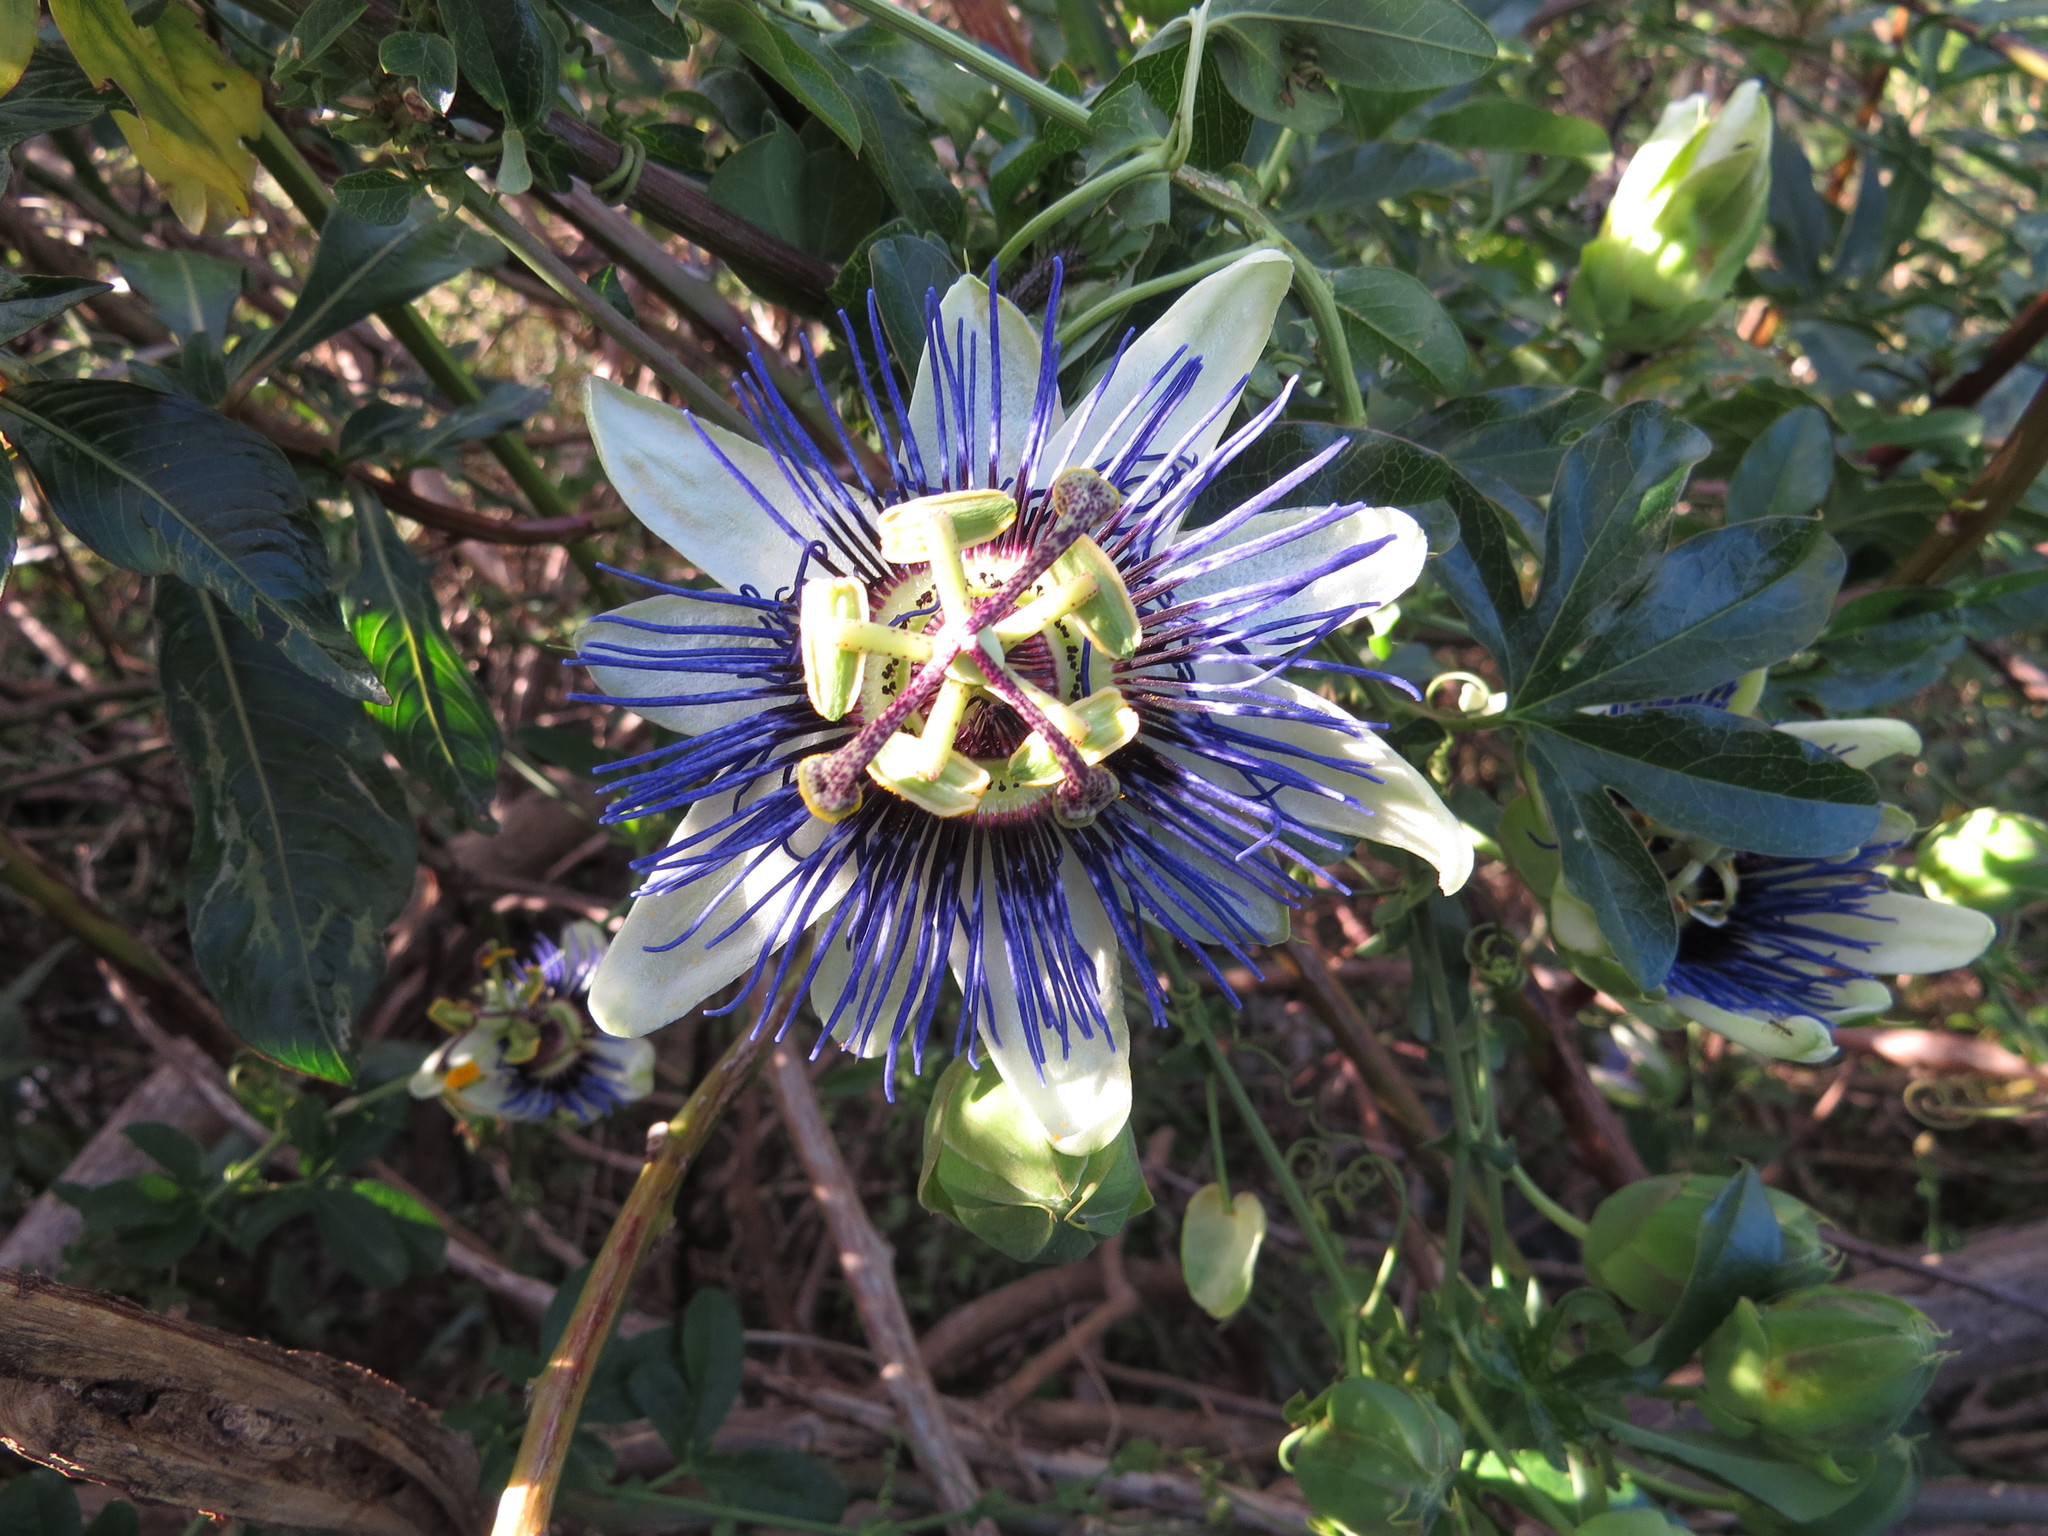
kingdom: Plantae
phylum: Tracheophyta
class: Magnoliopsida
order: Malpighiales
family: Passifloraceae
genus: Passiflora
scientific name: Passiflora caerulea
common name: Blue passionflower
